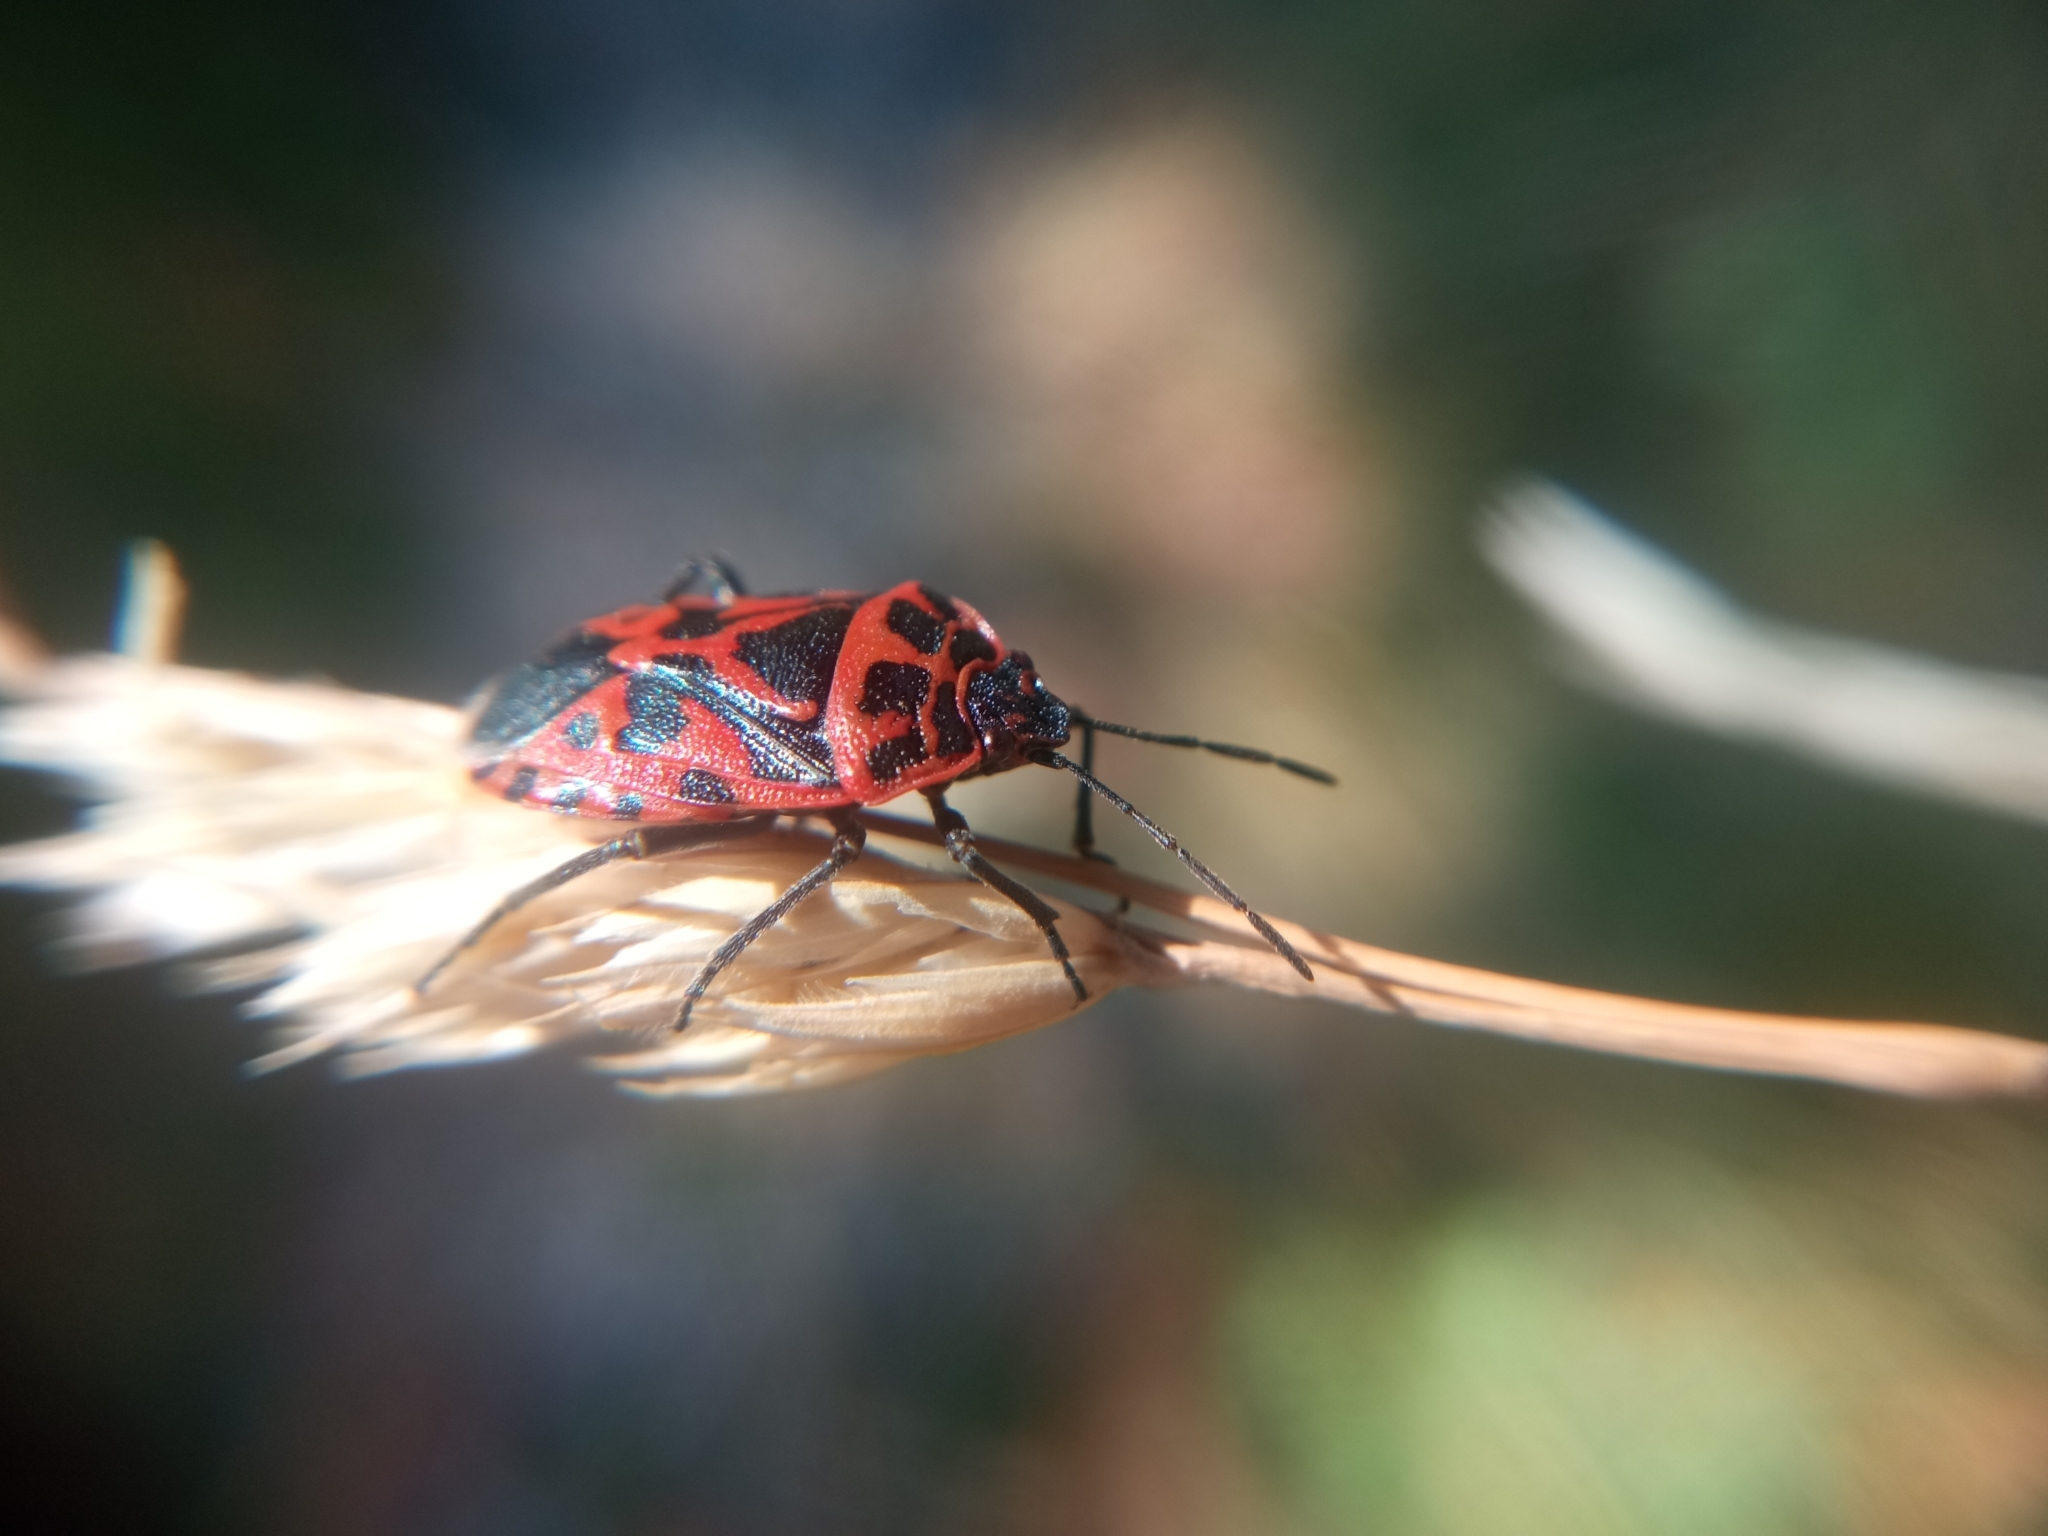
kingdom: Animalia
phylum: Arthropoda
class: Insecta
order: Hemiptera
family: Pentatomidae
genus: Eurydema
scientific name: Eurydema ventralis
